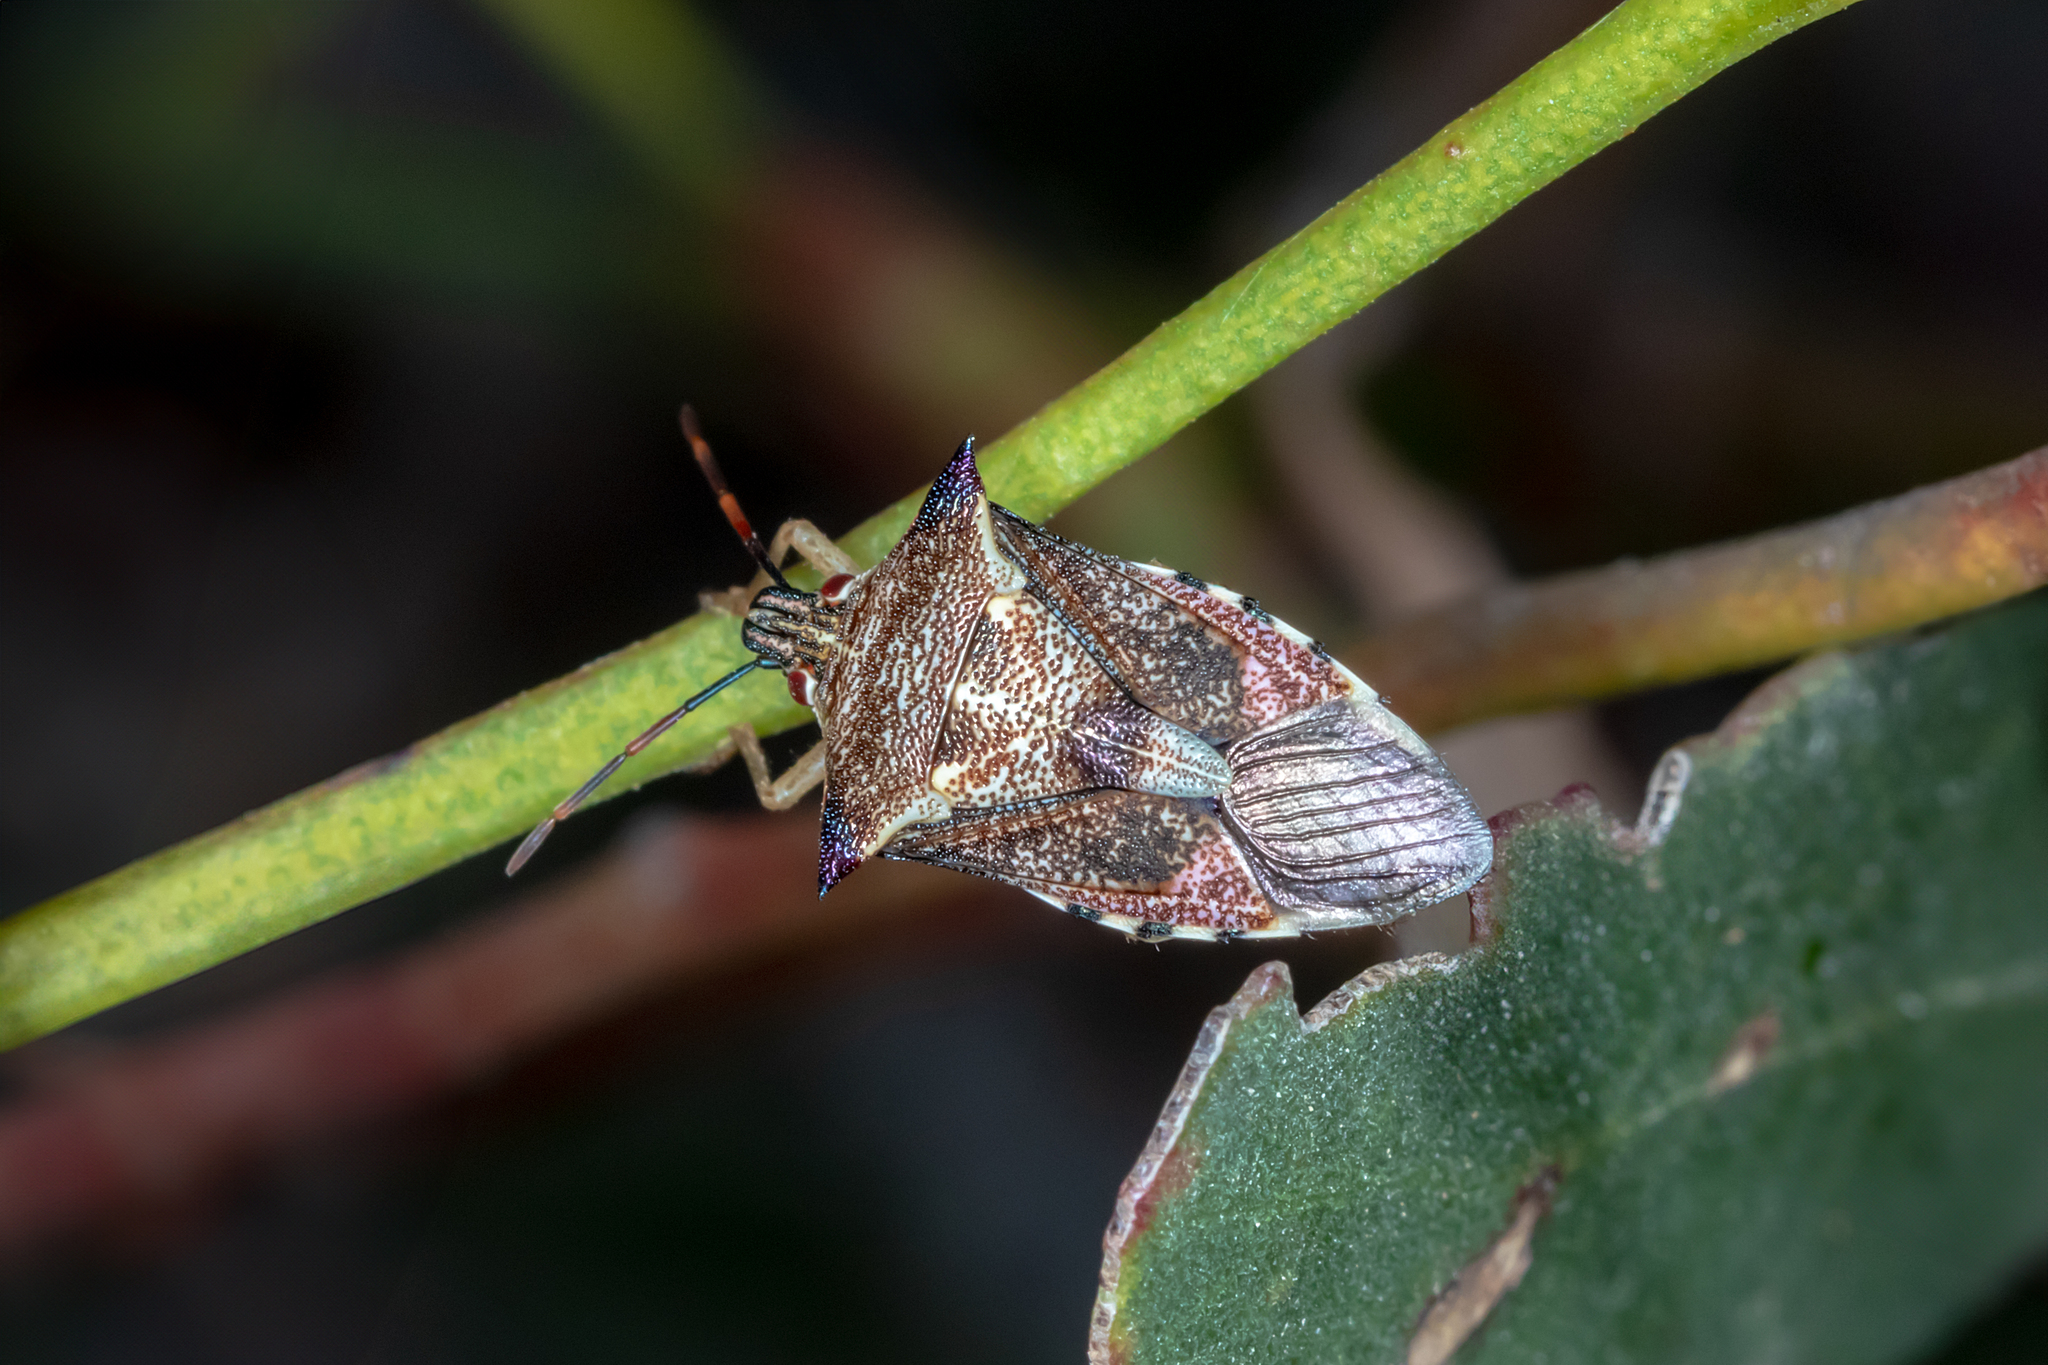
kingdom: Animalia
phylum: Arthropoda
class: Insecta
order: Hemiptera
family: Pentatomidae
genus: Oechalia
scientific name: Oechalia schellenbergii
